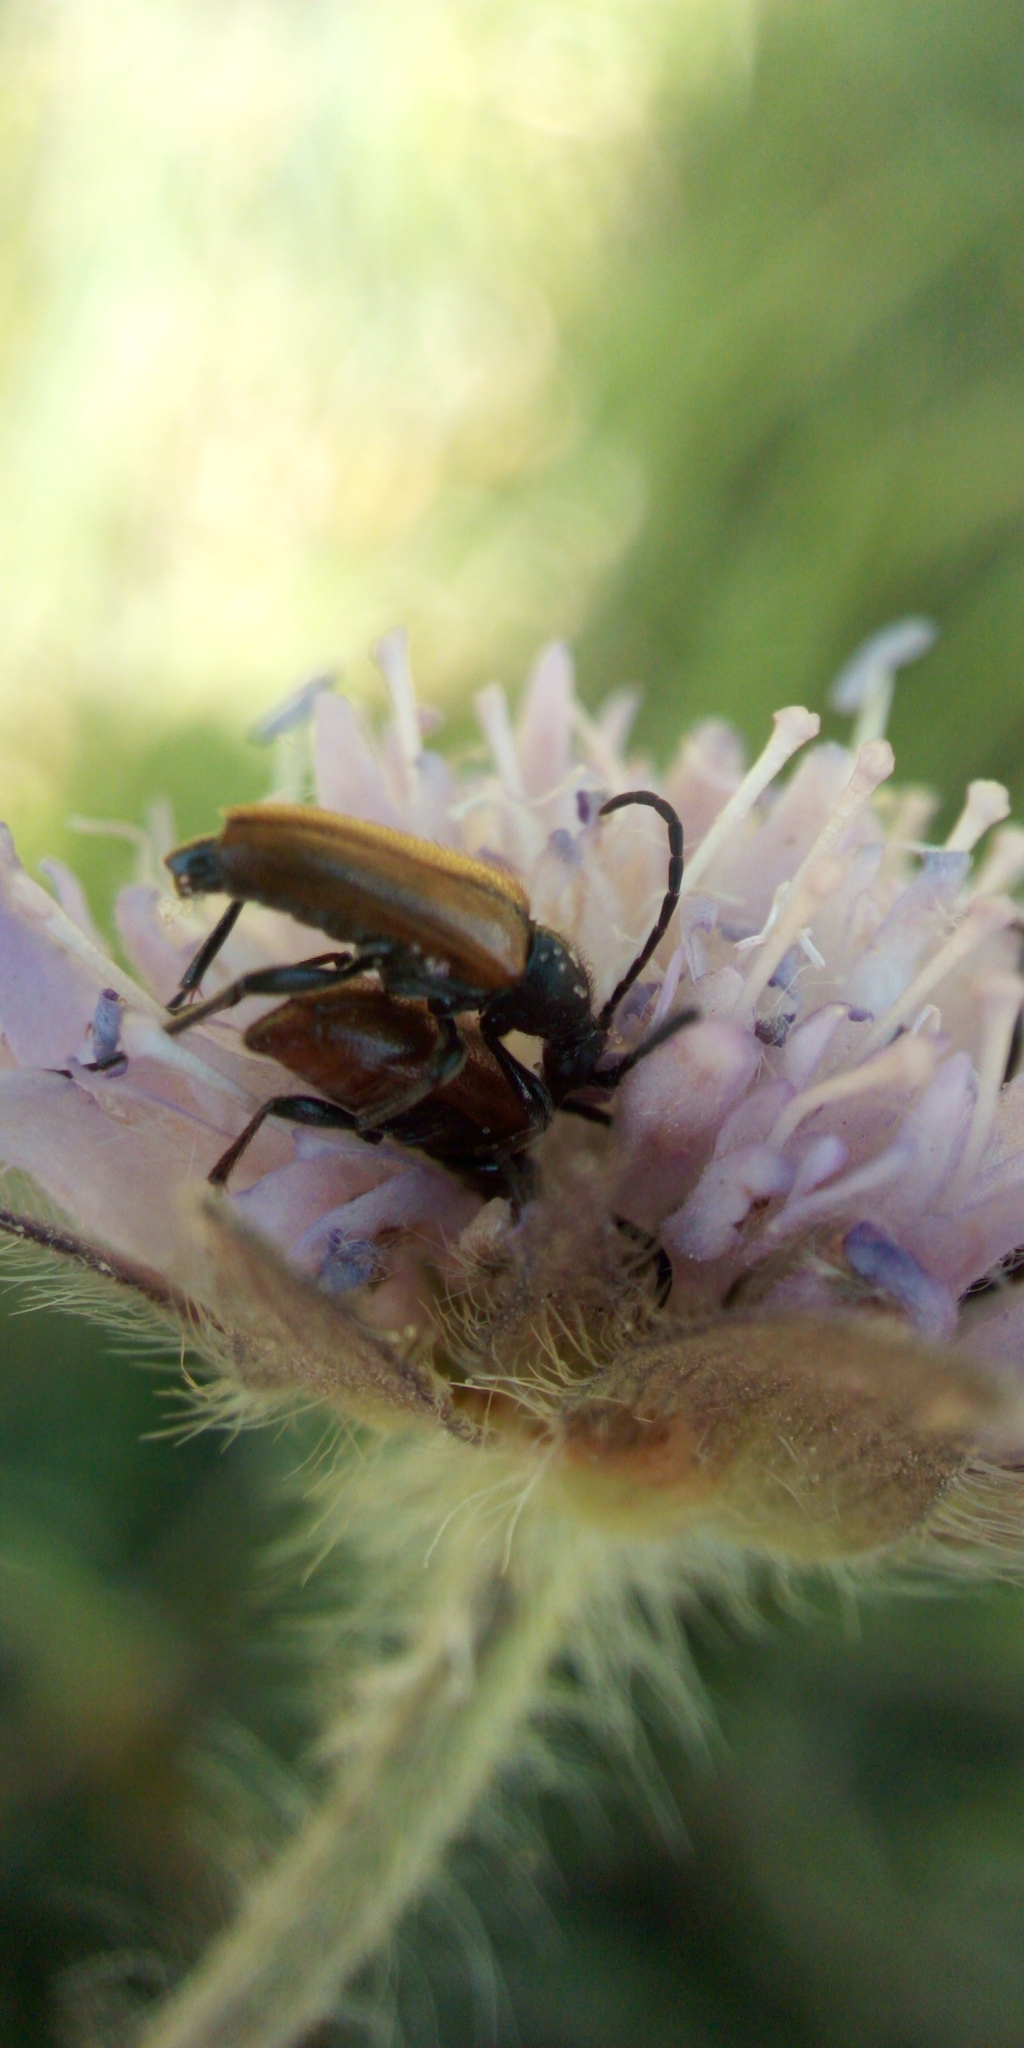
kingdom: Animalia
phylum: Arthropoda
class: Insecta
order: Coleoptera
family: Cerambycidae
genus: Pseudovadonia
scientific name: Pseudovadonia livida
